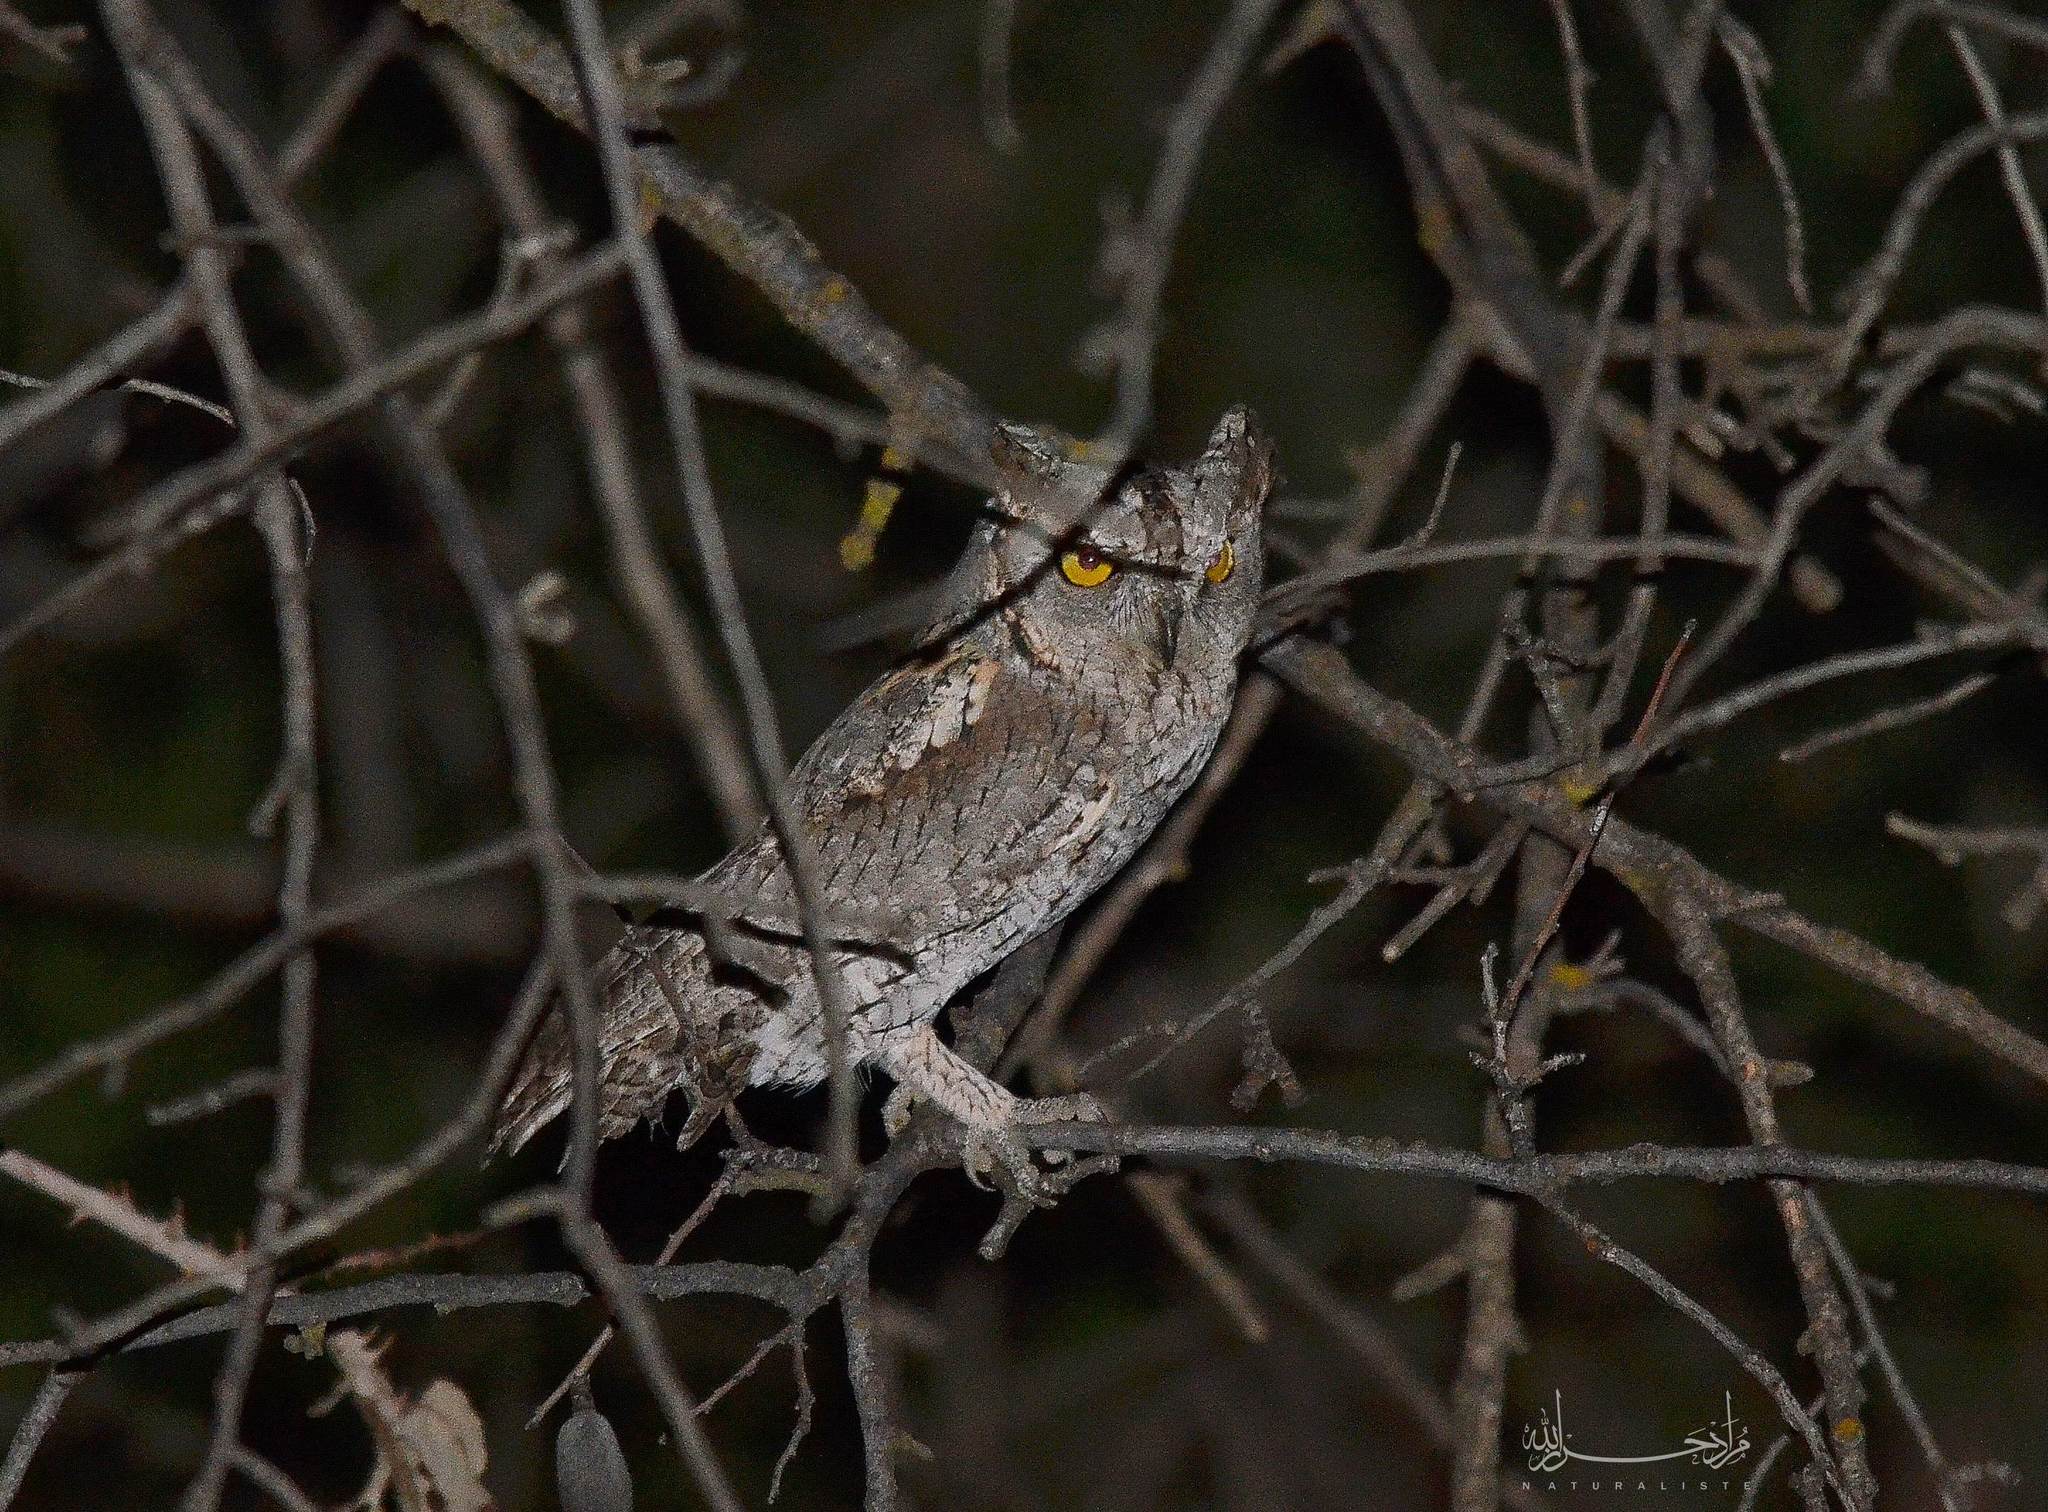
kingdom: Animalia
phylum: Chordata
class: Aves
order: Strigiformes
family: Strigidae
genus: Otus
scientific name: Otus scops
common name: Eurasian scops owl
